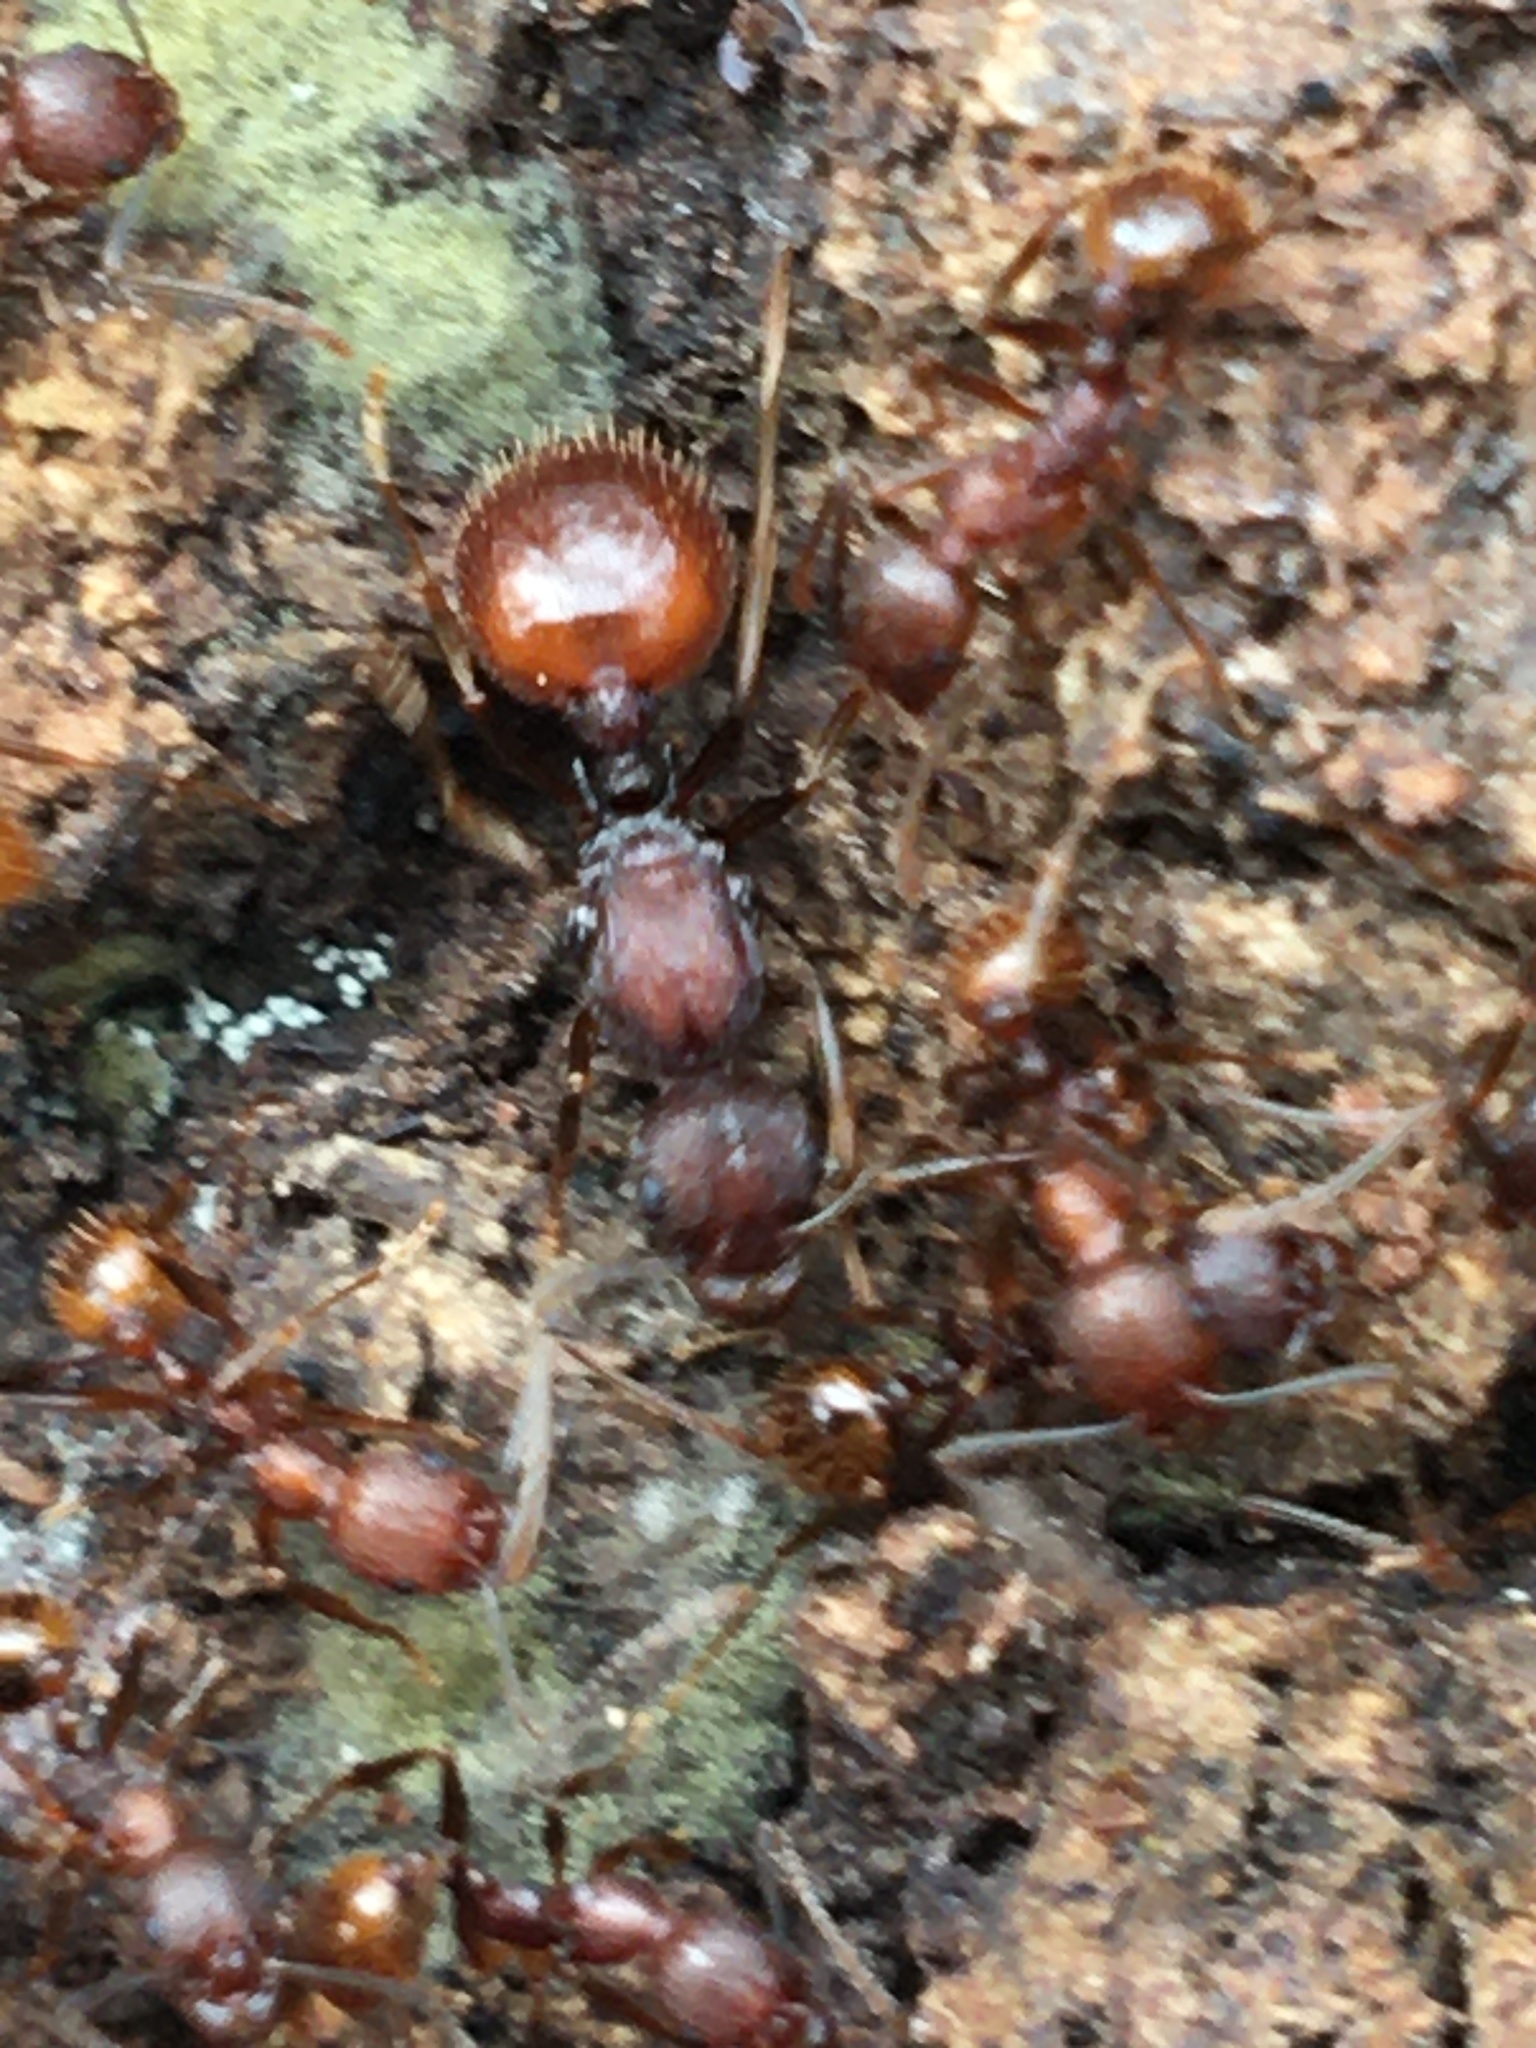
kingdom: Animalia
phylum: Arthropoda
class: Insecta
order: Hymenoptera
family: Formicidae
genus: Aphaenogaster
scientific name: Aphaenogaster fulva
